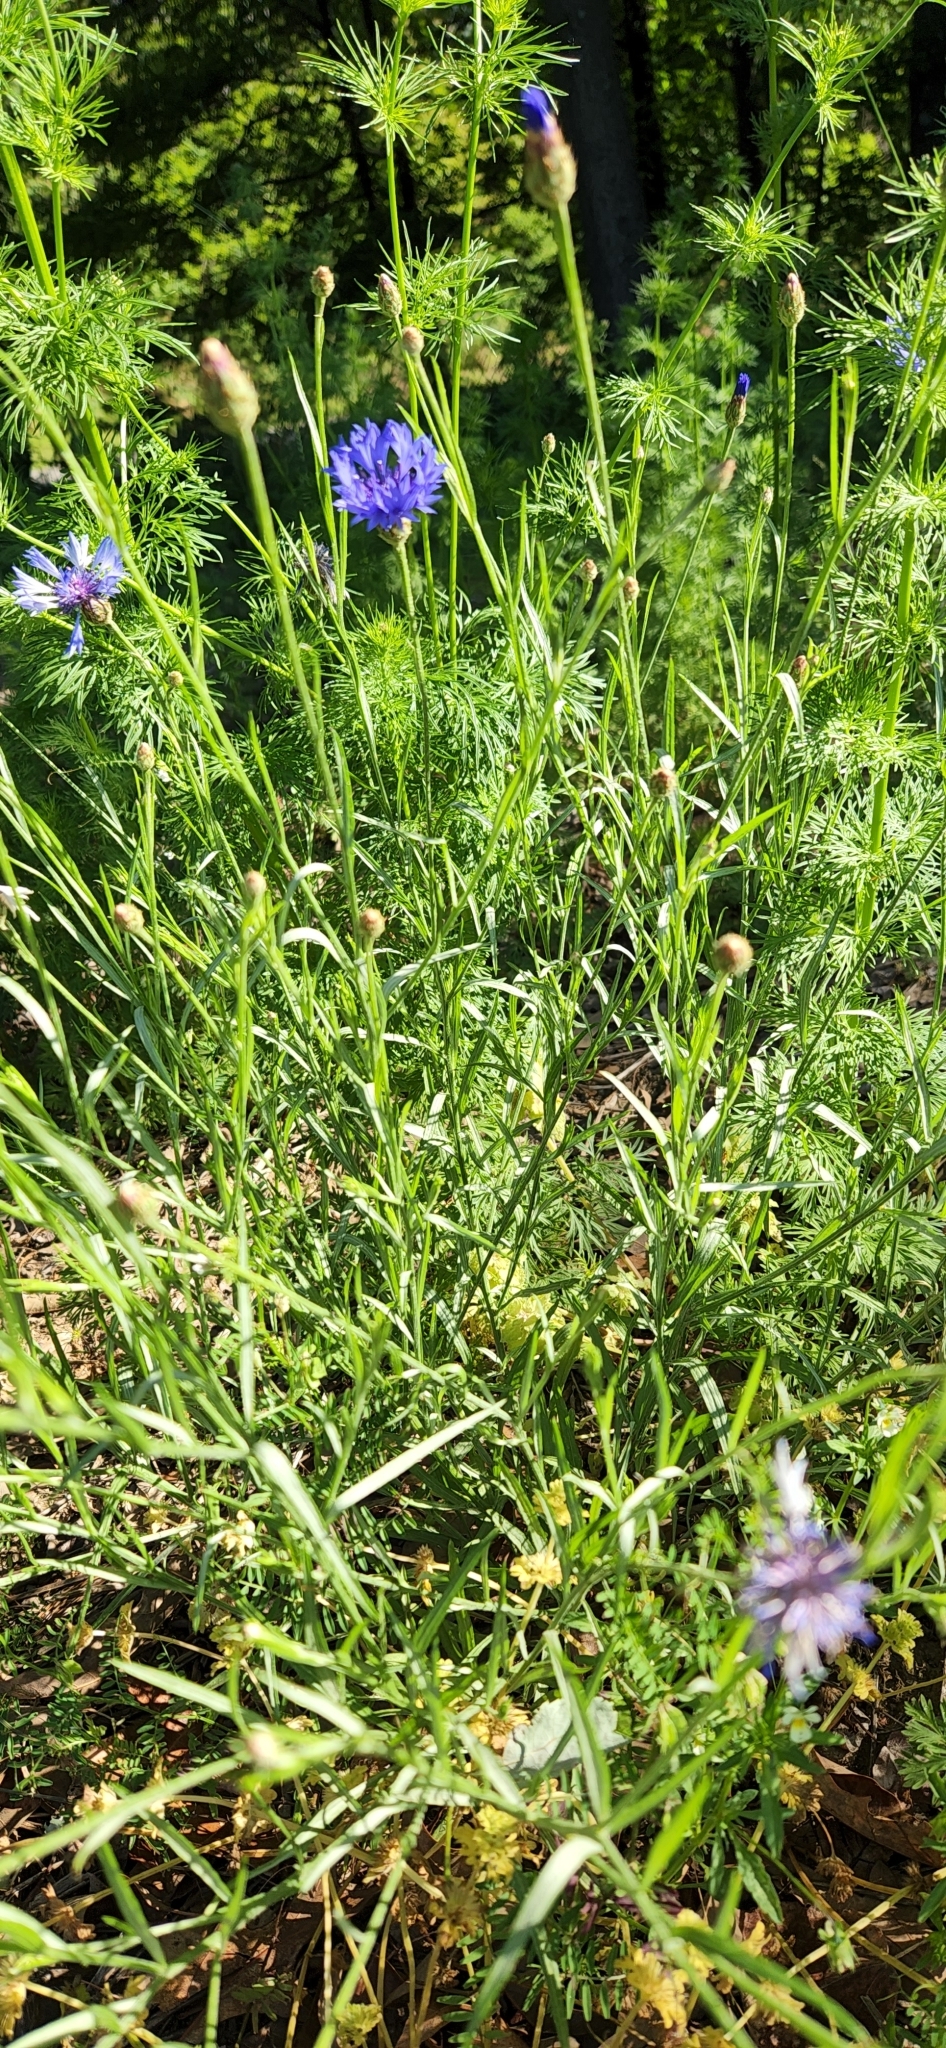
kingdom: Plantae
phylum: Tracheophyta
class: Magnoliopsida
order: Asterales
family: Asteraceae
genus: Centaurea
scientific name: Centaurea cyanus
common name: Cornflower
